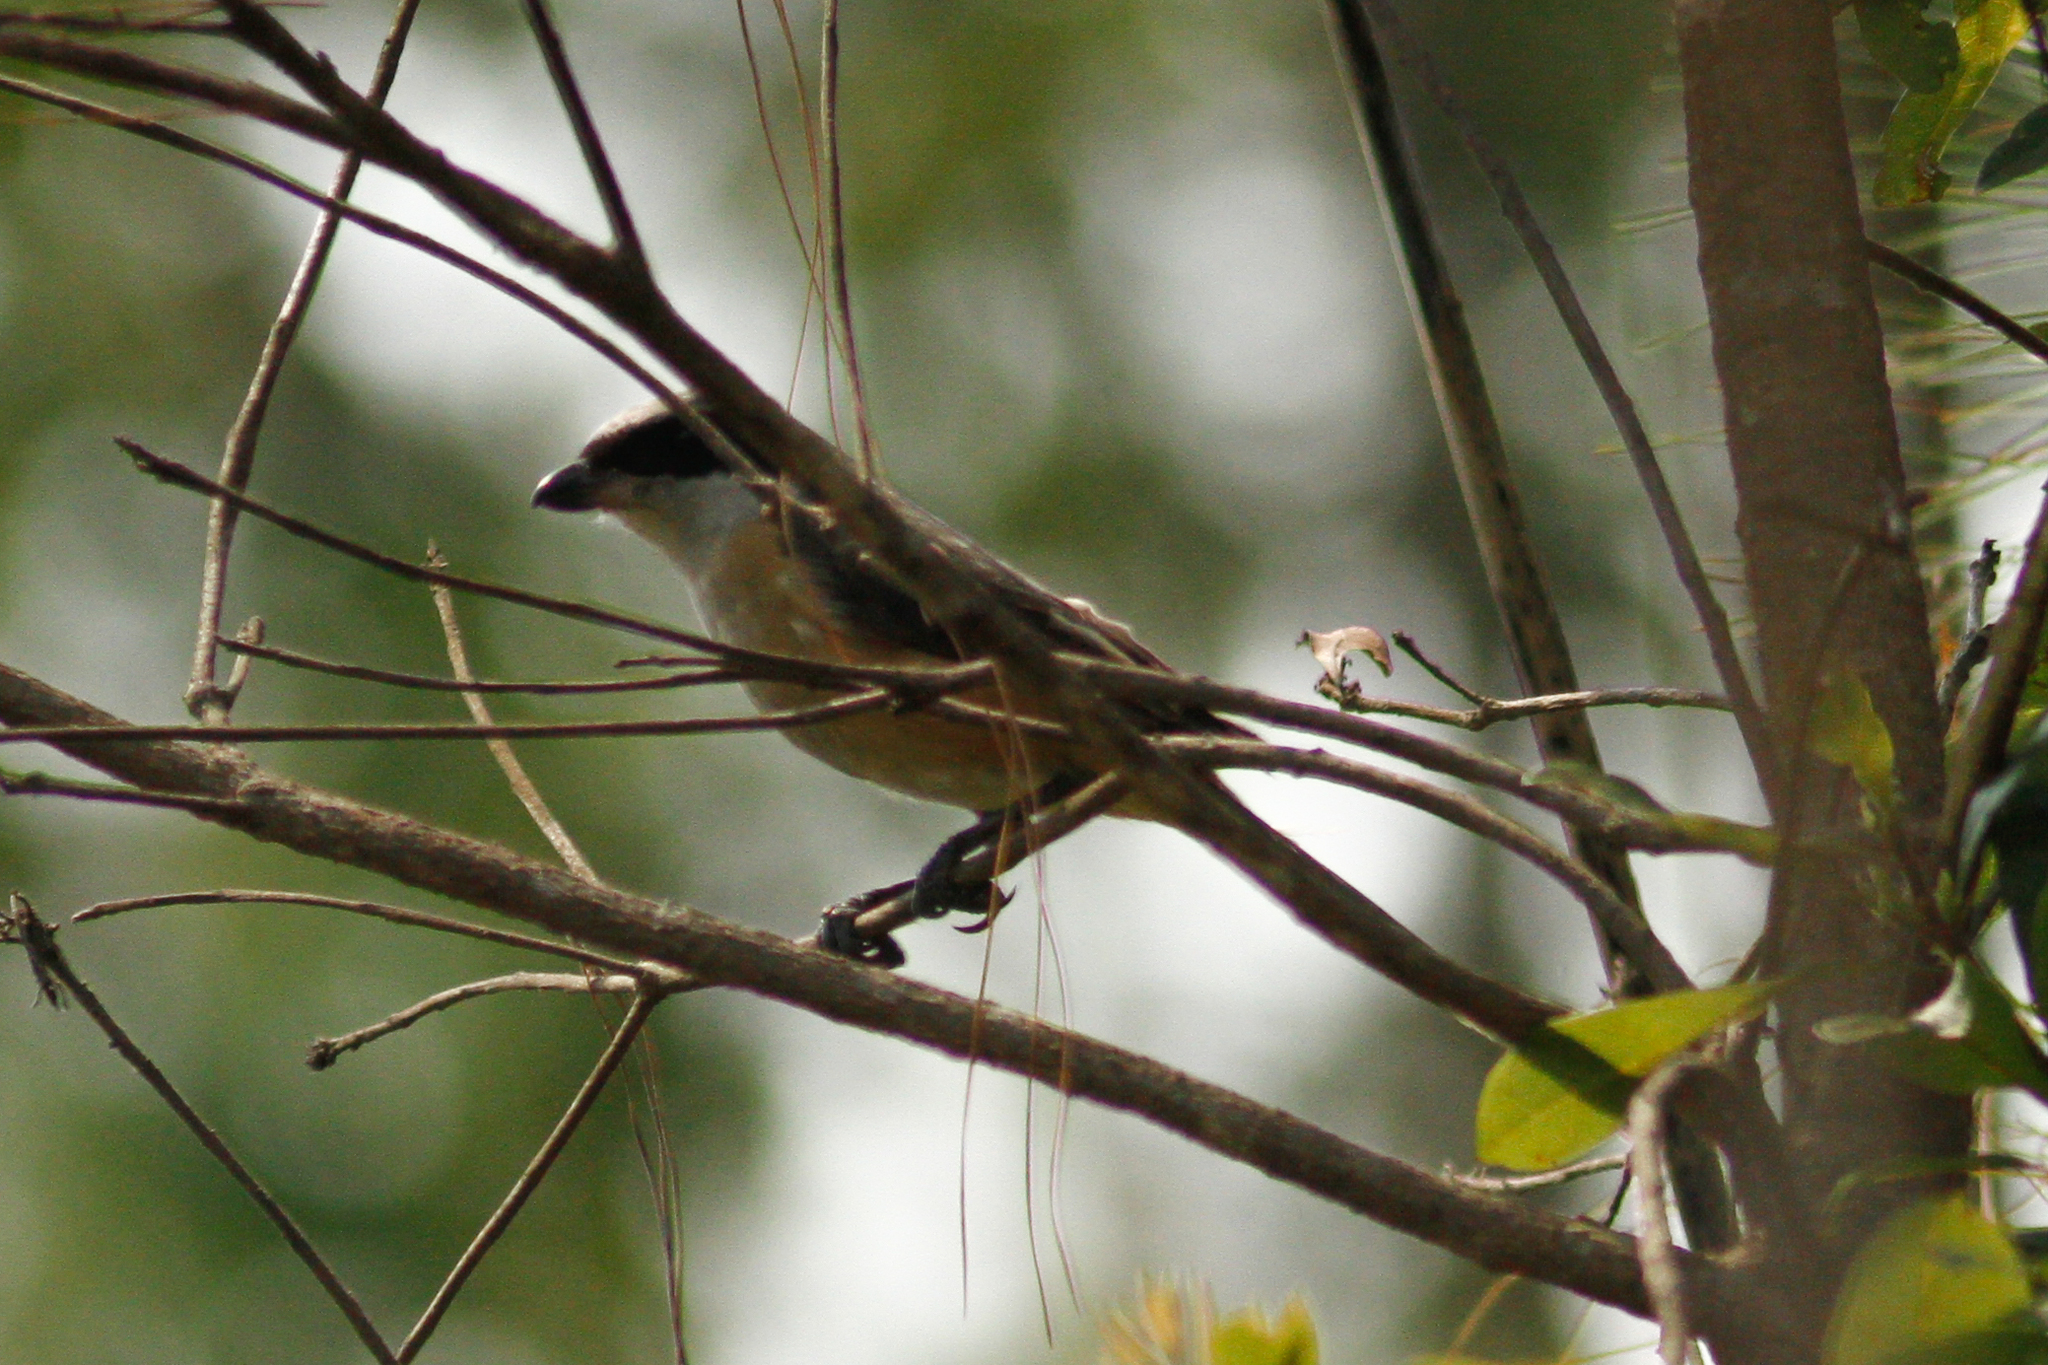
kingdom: Animalia
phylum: Chordata
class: Aves
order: Passeriformes
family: Laniidae
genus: Lanius
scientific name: Lanius tephronotus
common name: Grey-backed shrike
